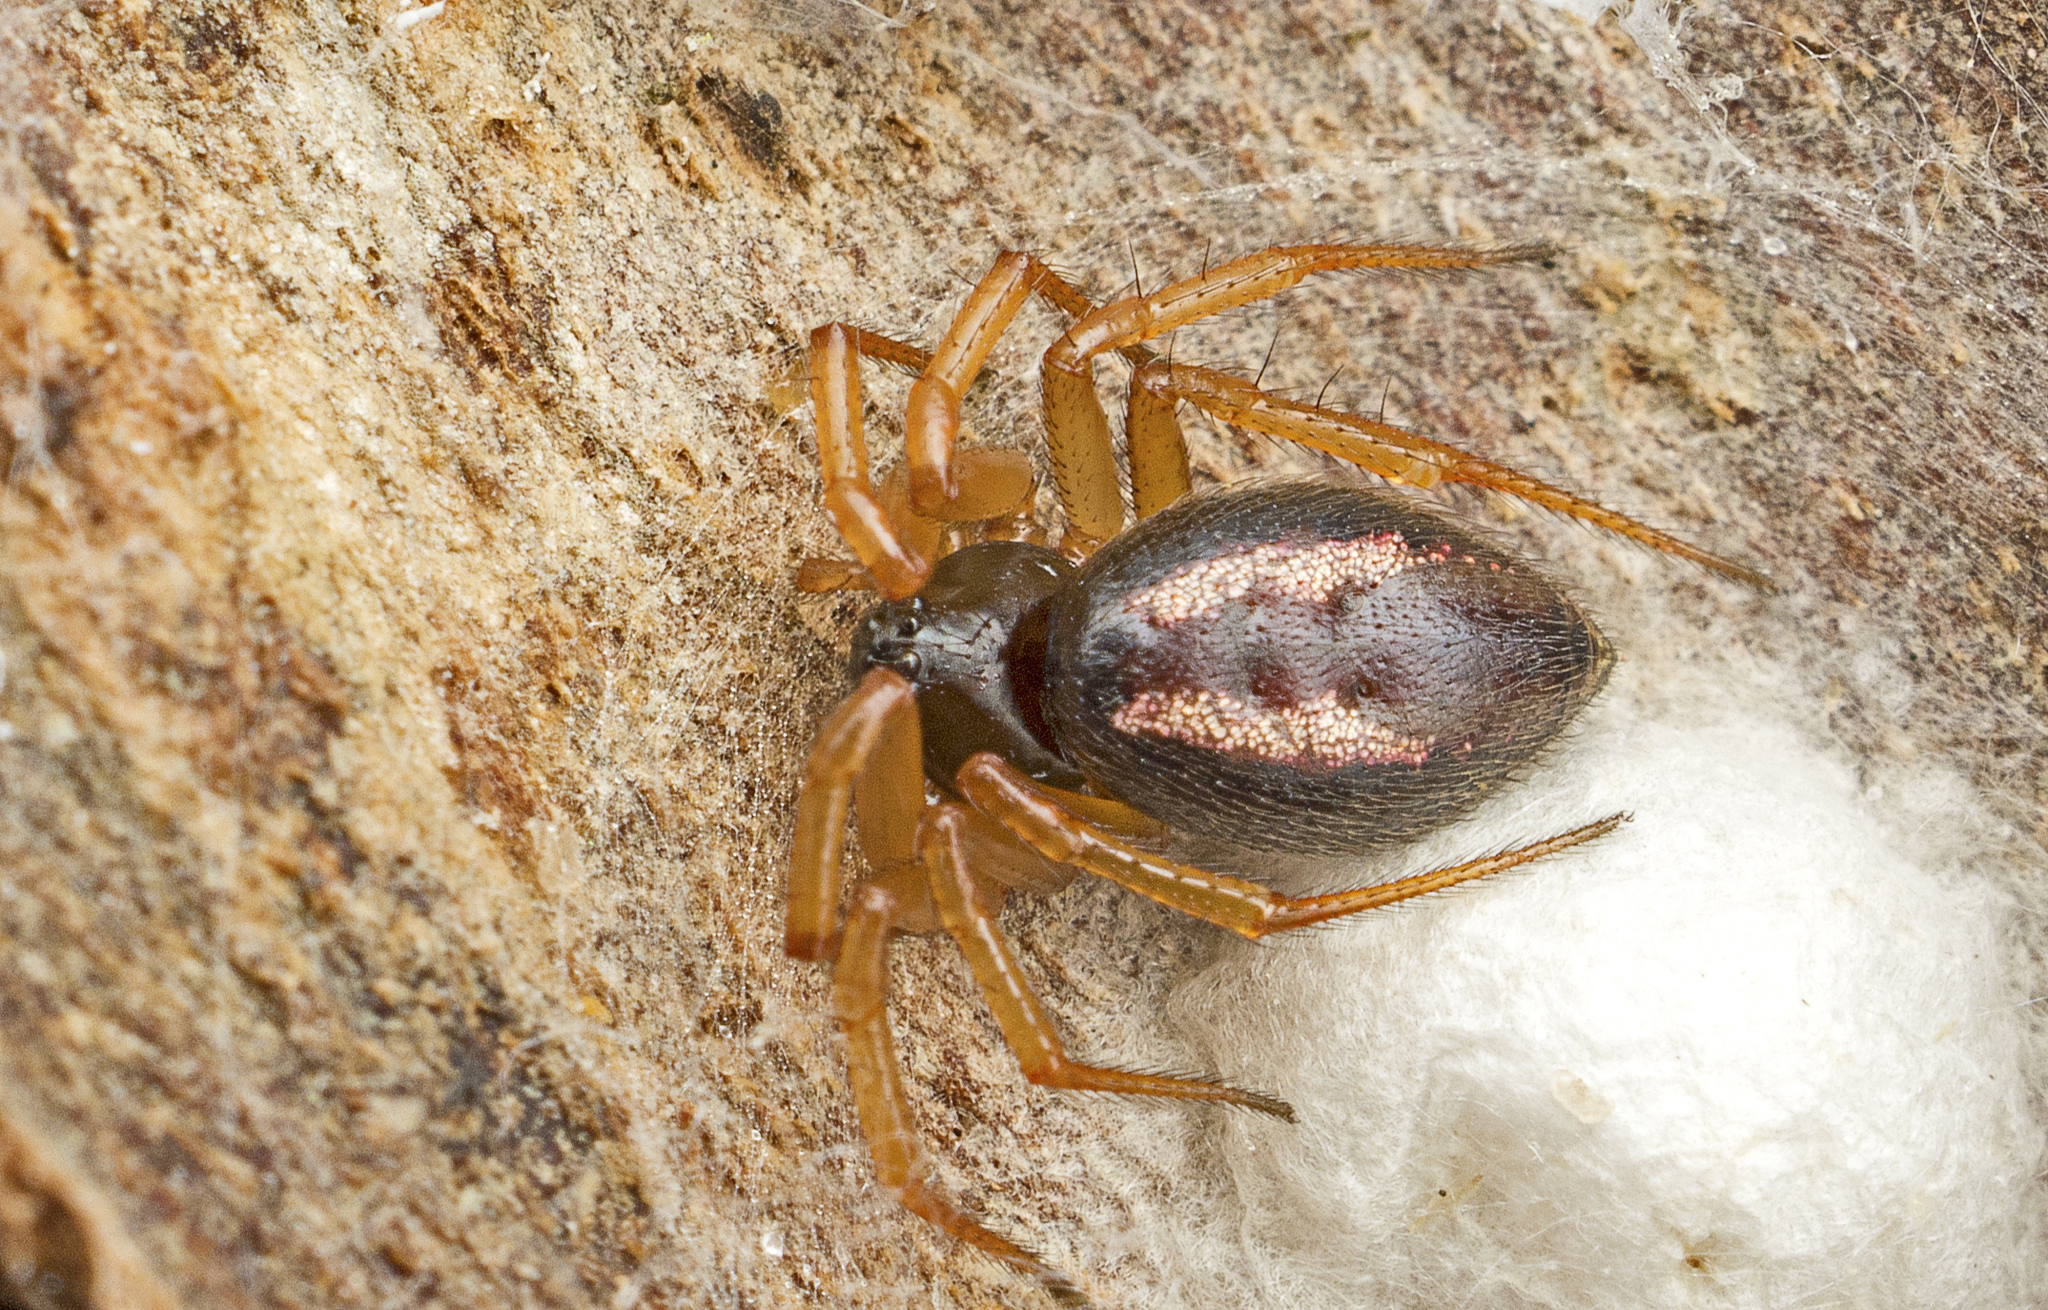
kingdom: Animalia
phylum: Arthropoda
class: Arachnida
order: Araneae
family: Theridiidae
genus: Euryopis
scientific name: Euryopis umbilicata
